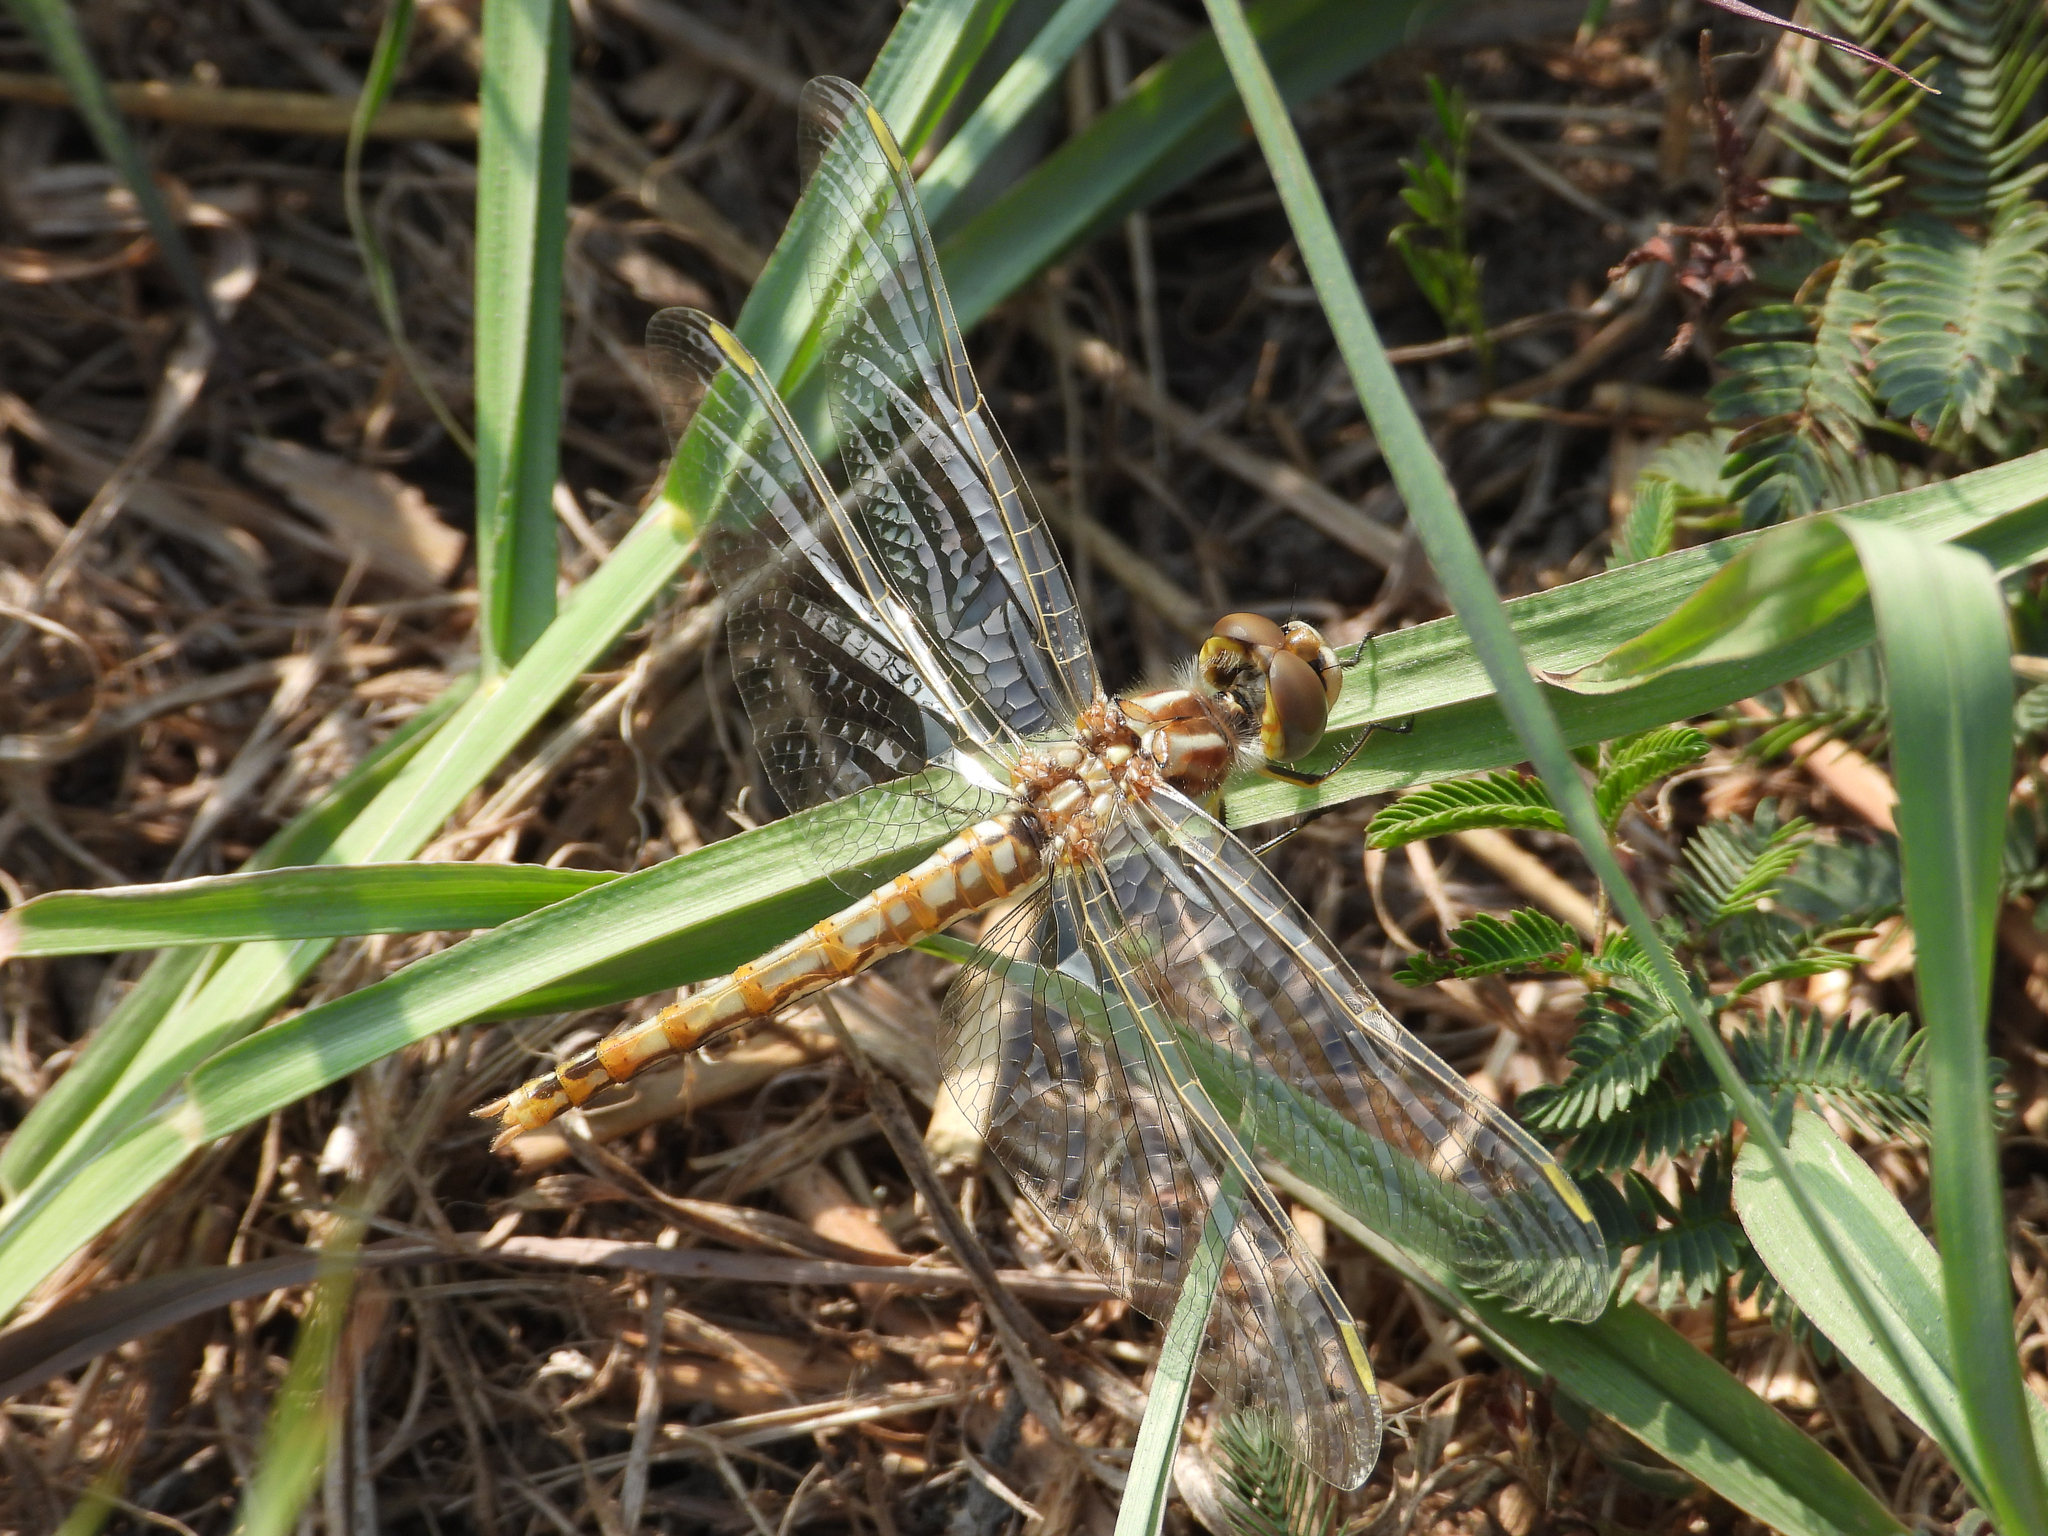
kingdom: Animalia
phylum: Arthropoda
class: Insecta
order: Odonata
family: Libellulidae
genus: Sympetrum
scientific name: Sympetrum corruptum
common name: Variegated meadowhawk
